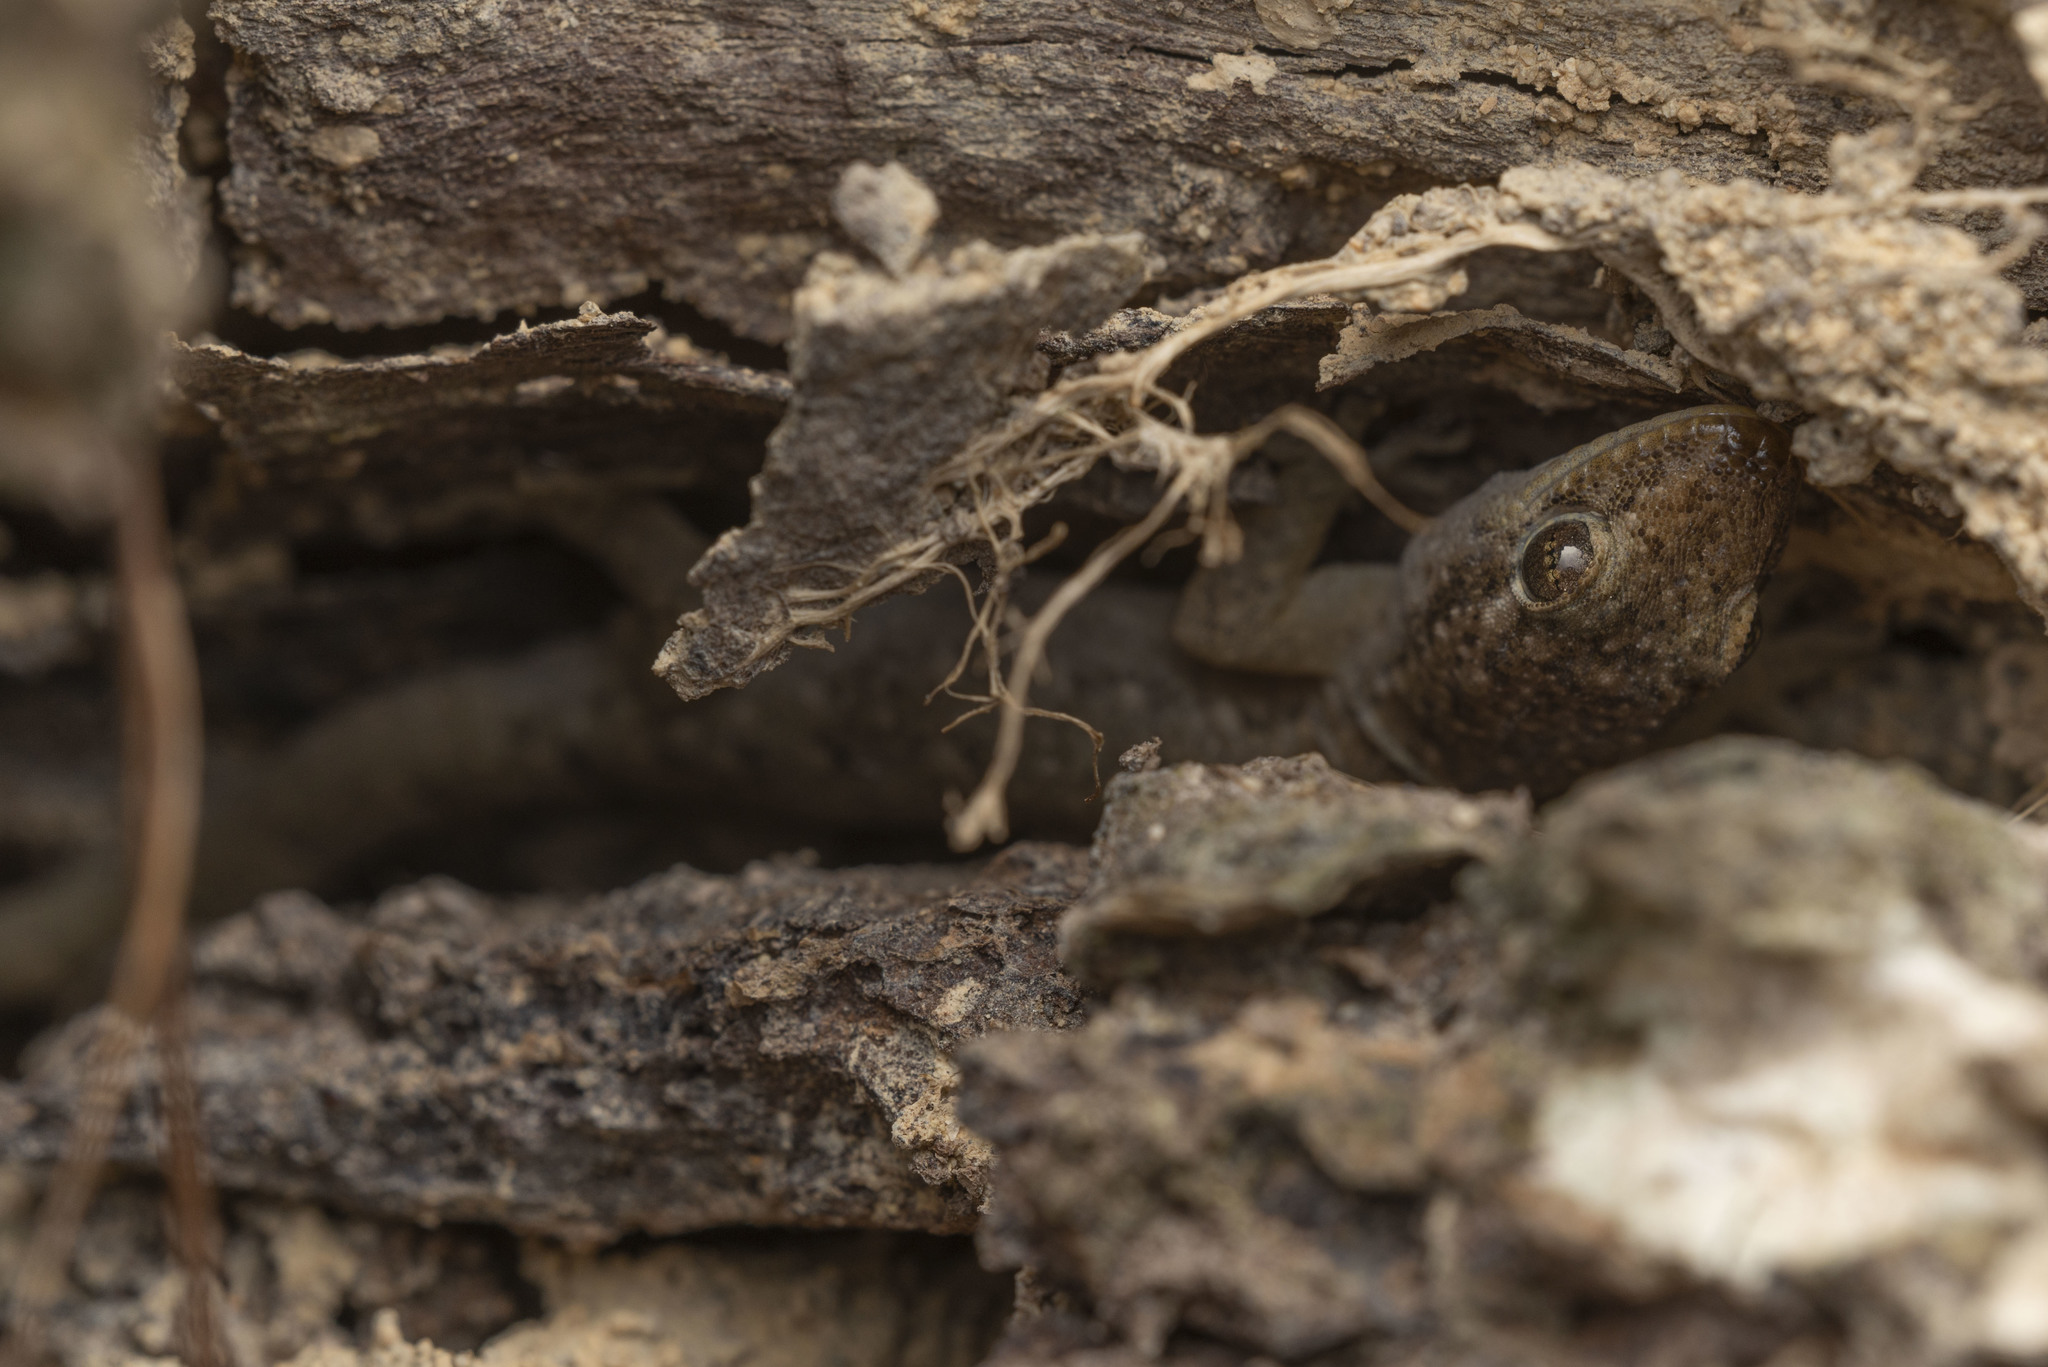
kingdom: Animalia
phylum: Chordata
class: Squamata
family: Gekkonidae
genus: Hemidactylus
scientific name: Hemidactylus bowringii
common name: Oriental leaf-toed gecko
